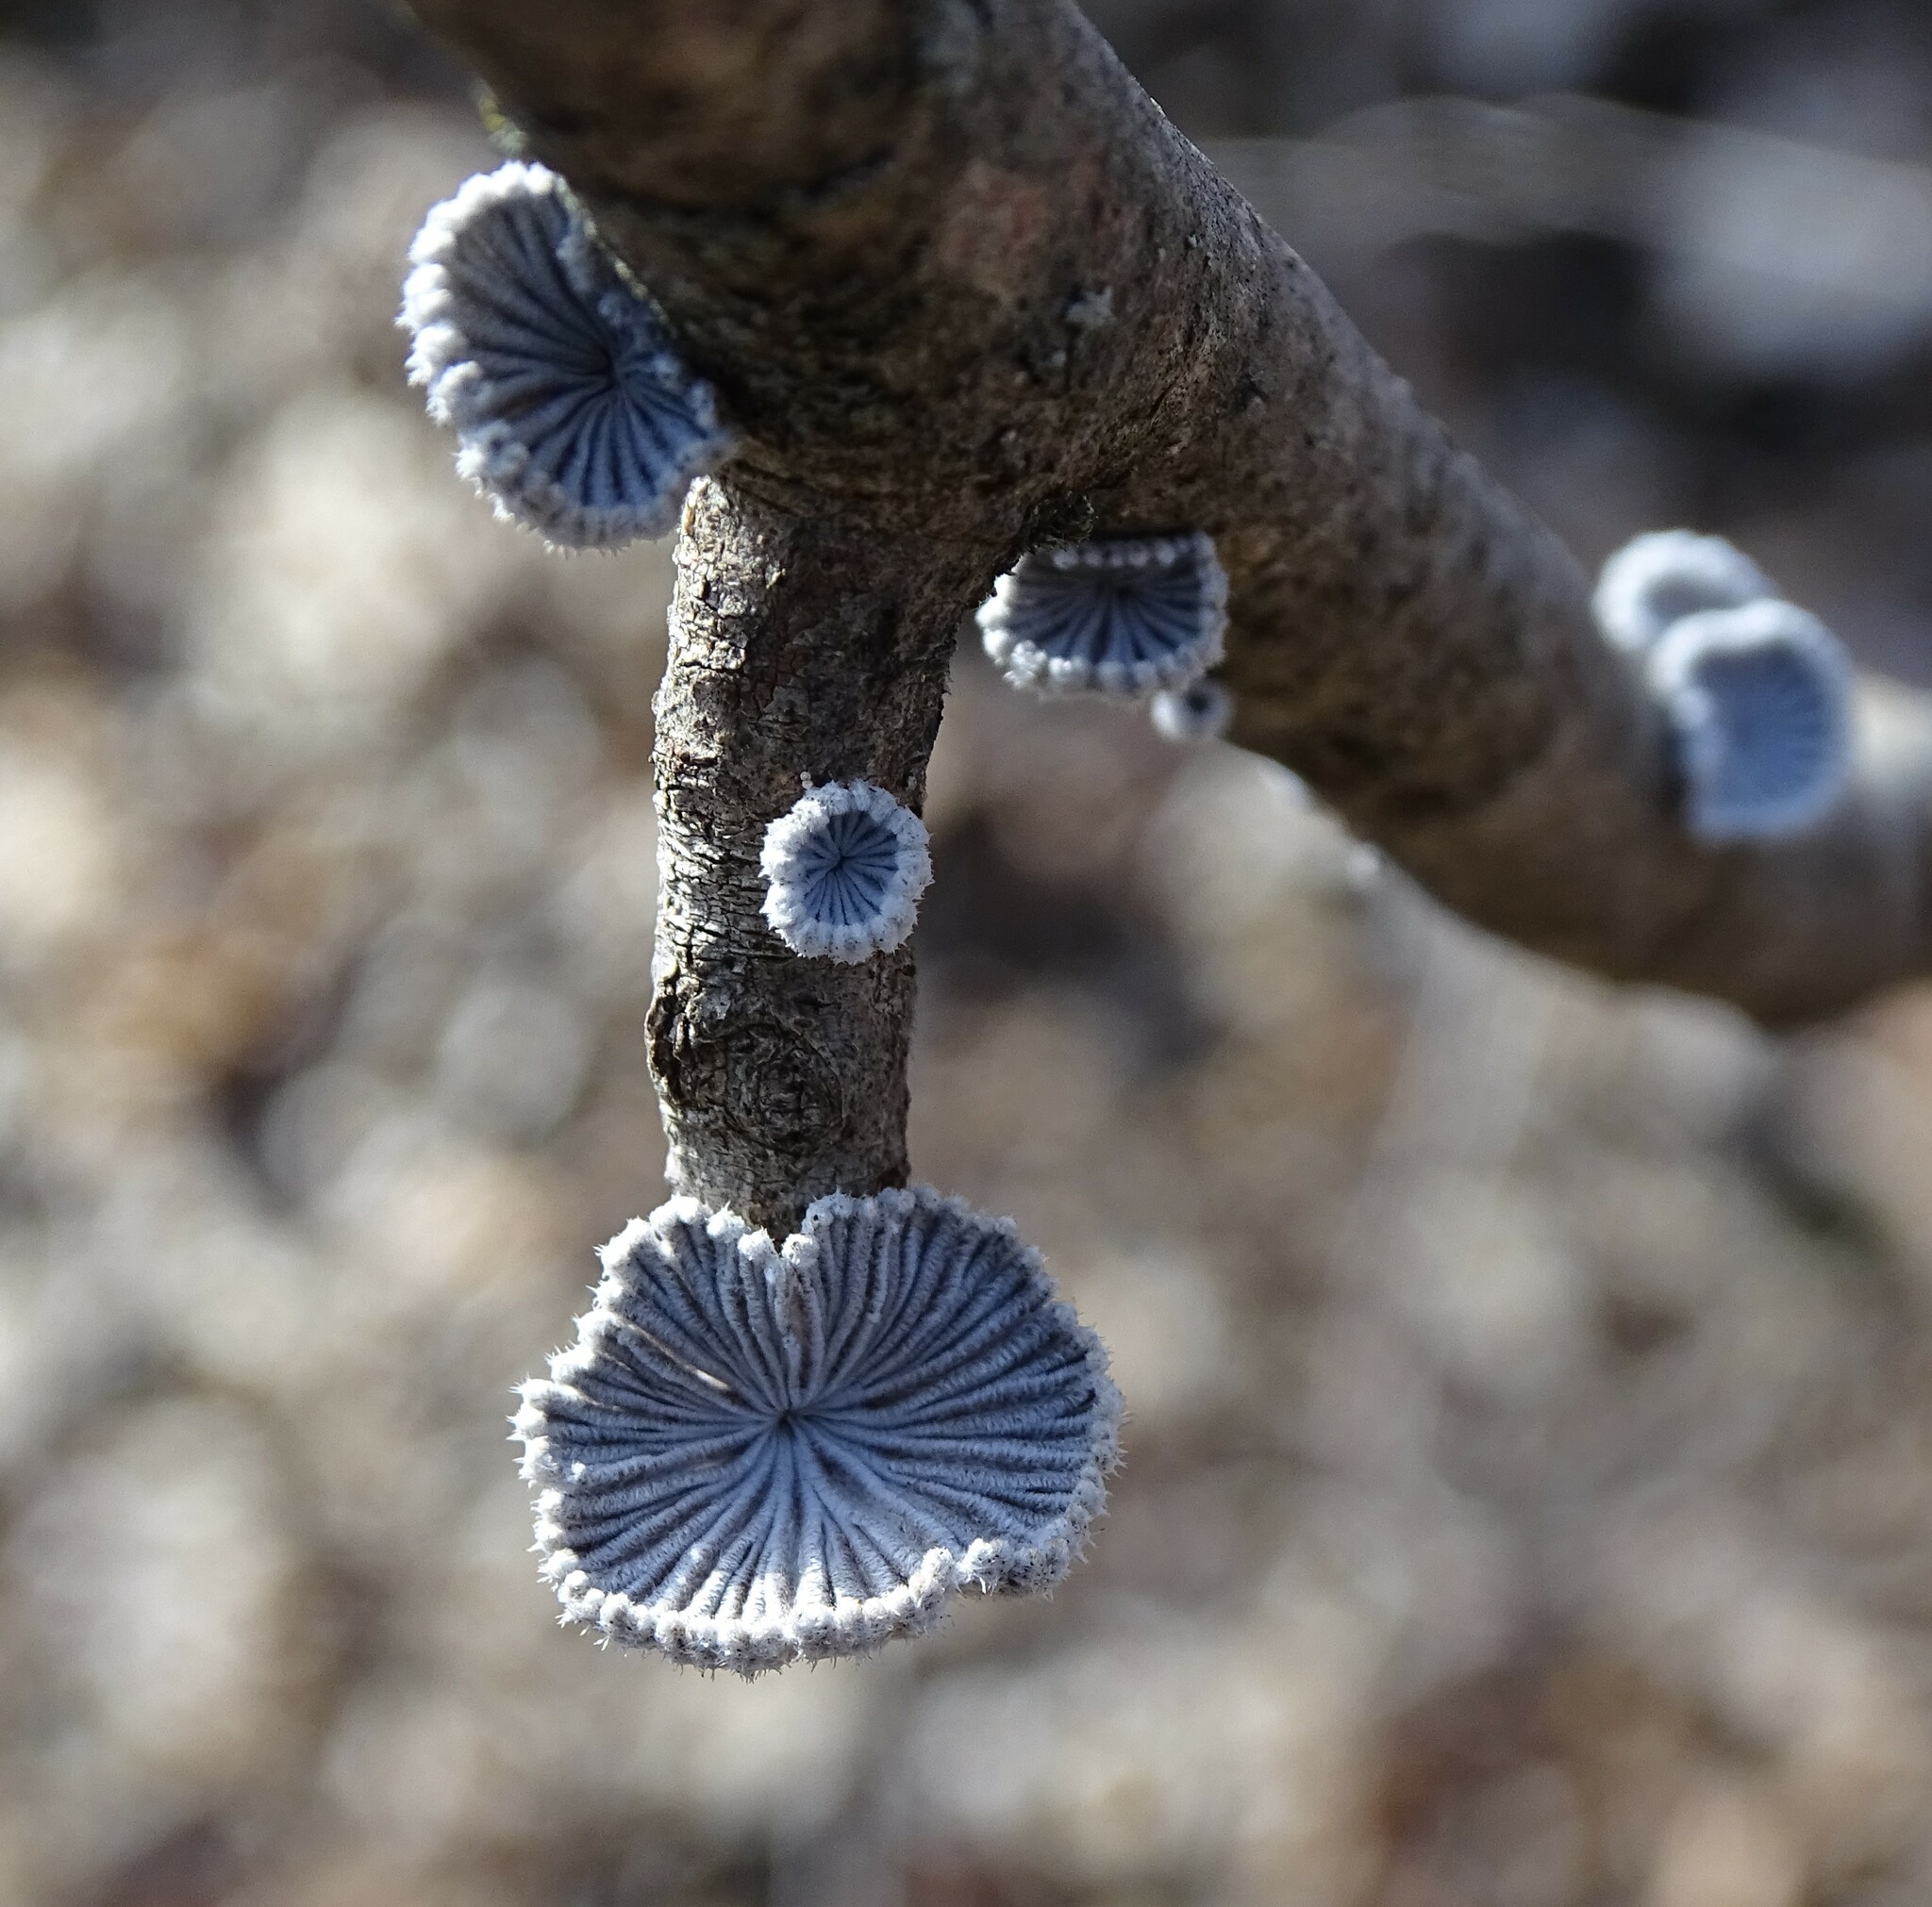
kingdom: Fungi
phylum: Basidiomycota
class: Agaricomycetes
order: Agaricales
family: Schizophyllaceae
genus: Schizophyllum
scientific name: Schizophyllum commune
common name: Common porecrust
